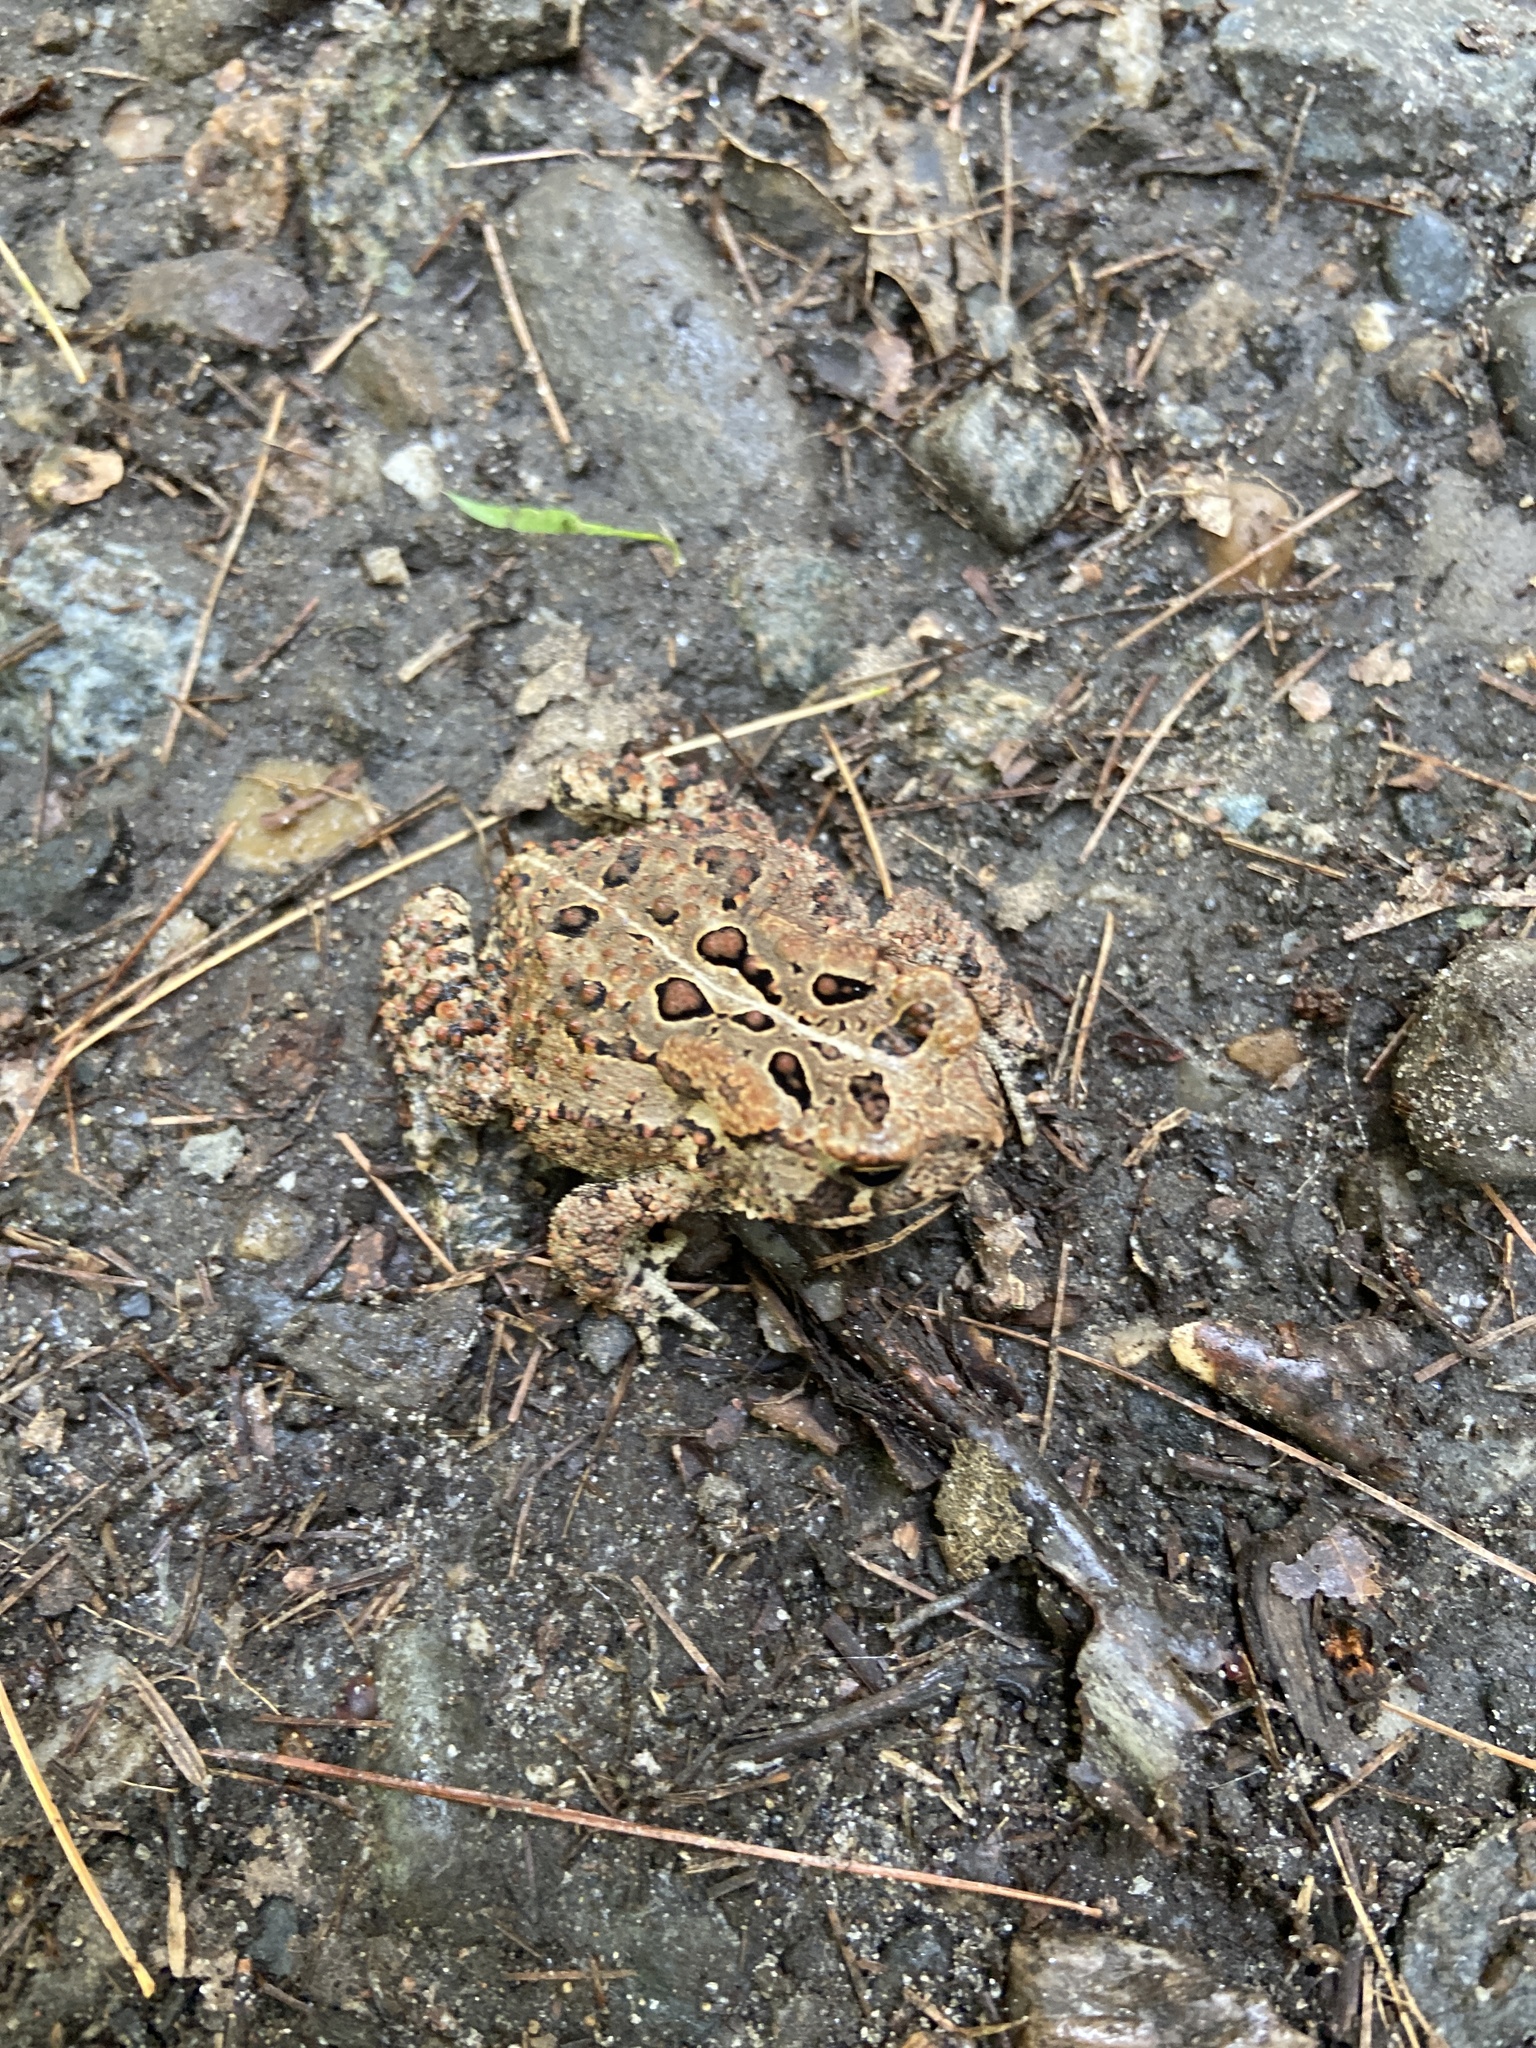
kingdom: Animalia
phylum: Chordata
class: Amphibia
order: Anura
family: Bufonidae
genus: Anaxyrus
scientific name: Anaxyrus americanus
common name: American toad
